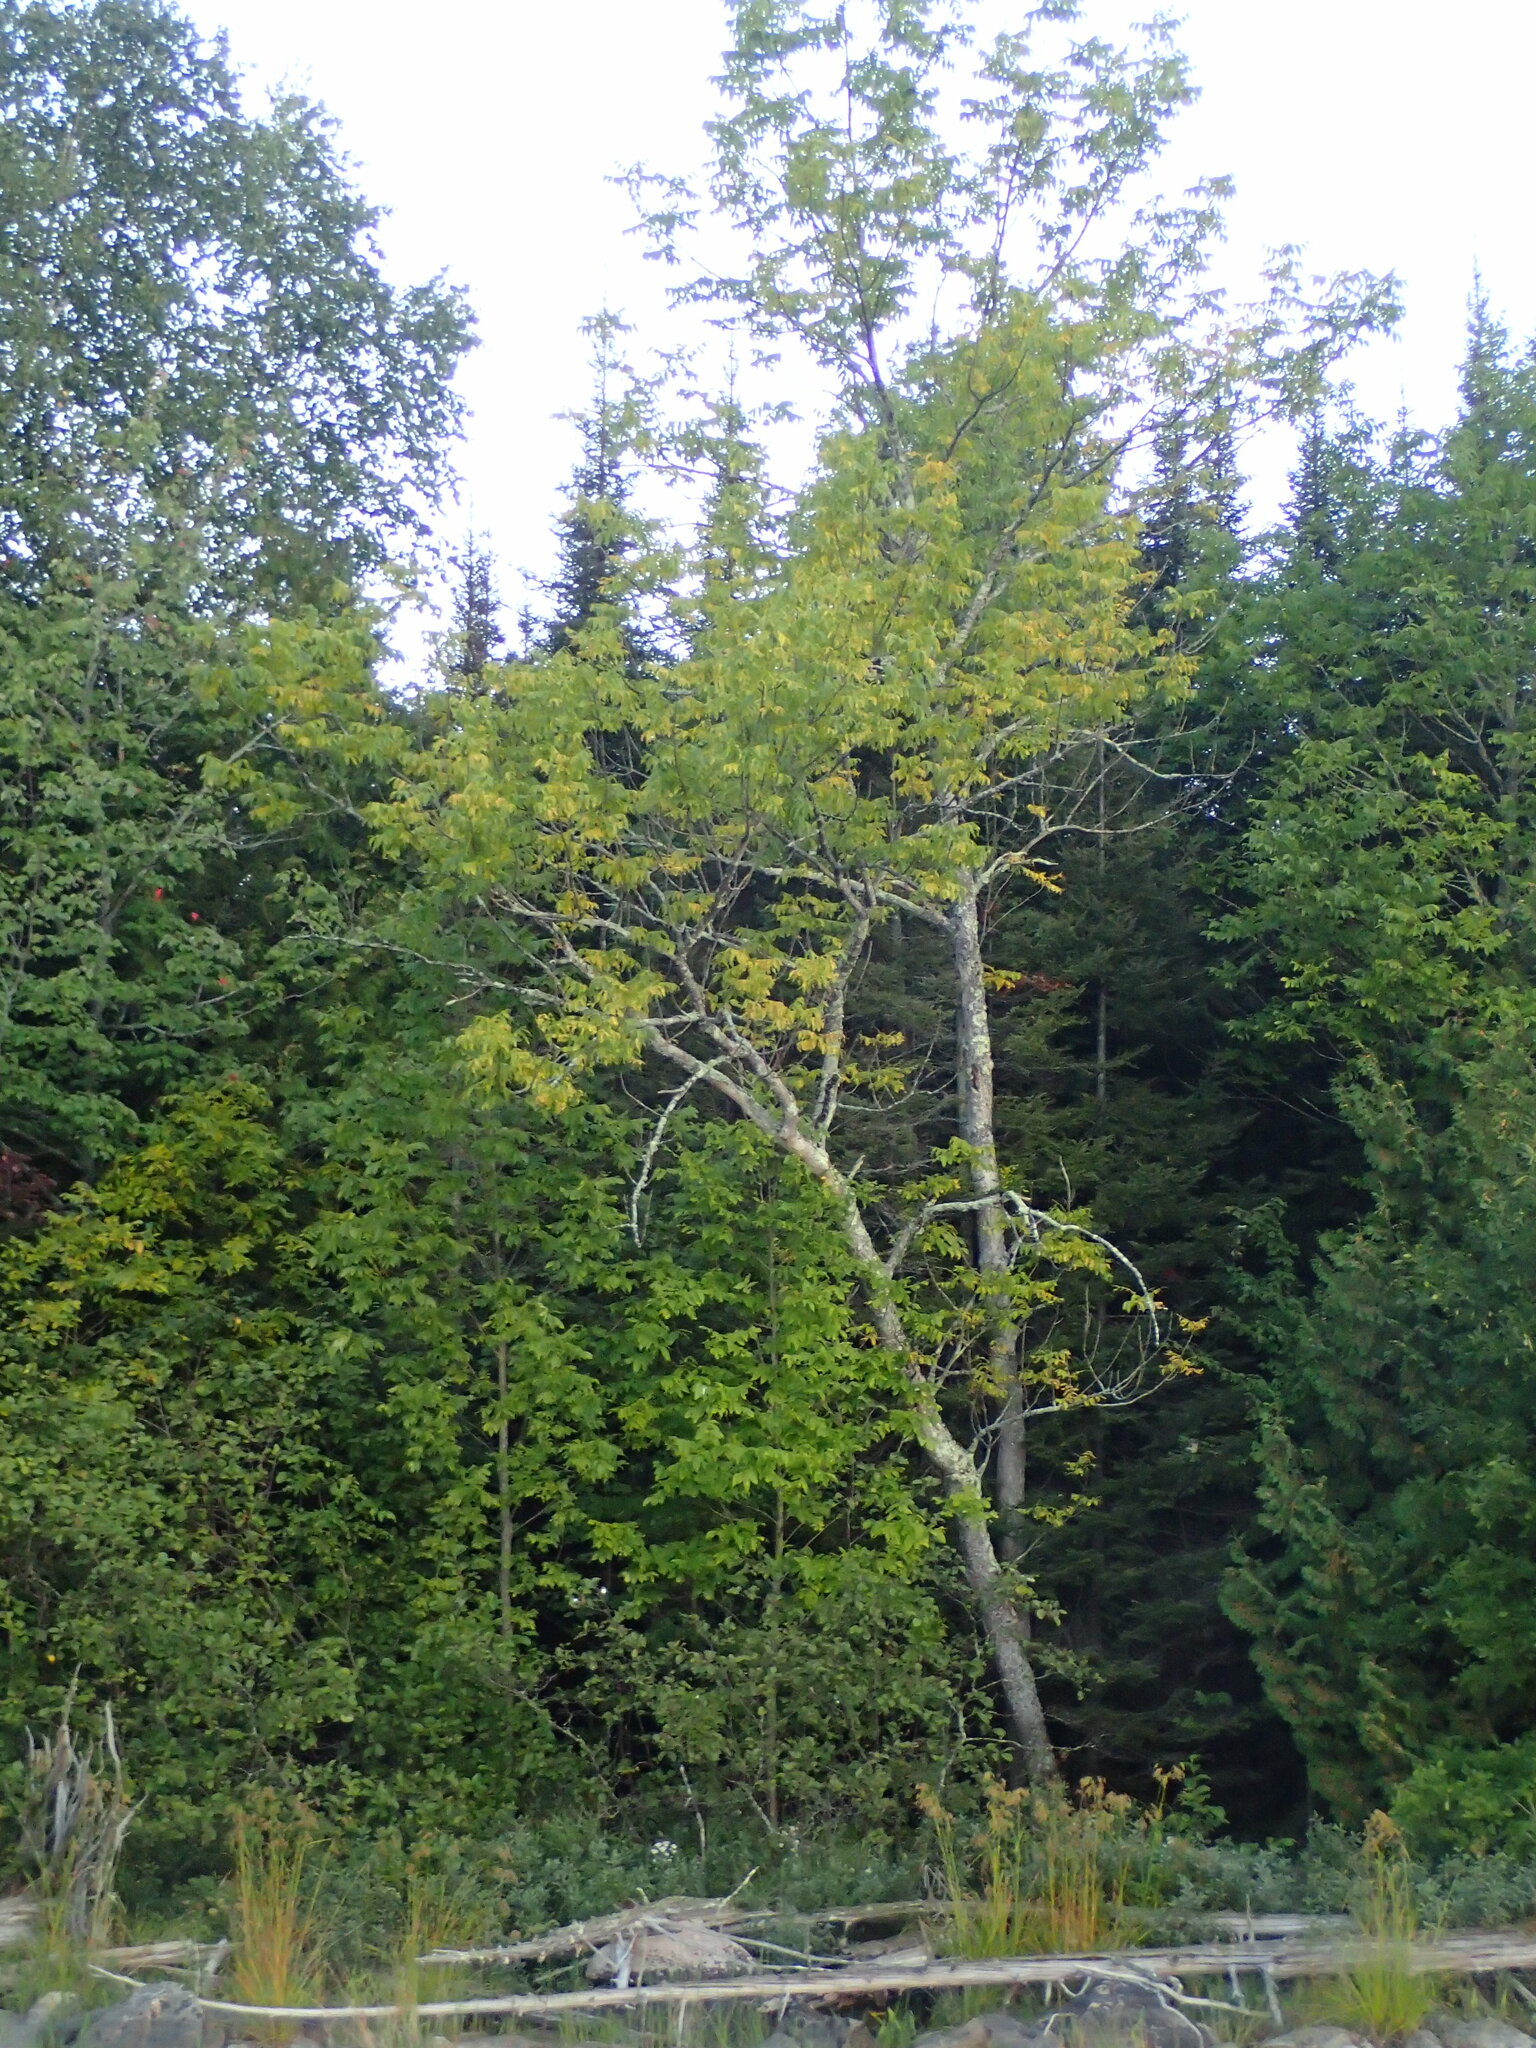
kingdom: Plantae
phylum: Tracheophyta
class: Magnoliopsida
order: Lamiales
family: Oleaceae
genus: Fraxinus
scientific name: Fraxinus nigra
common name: Black ash
